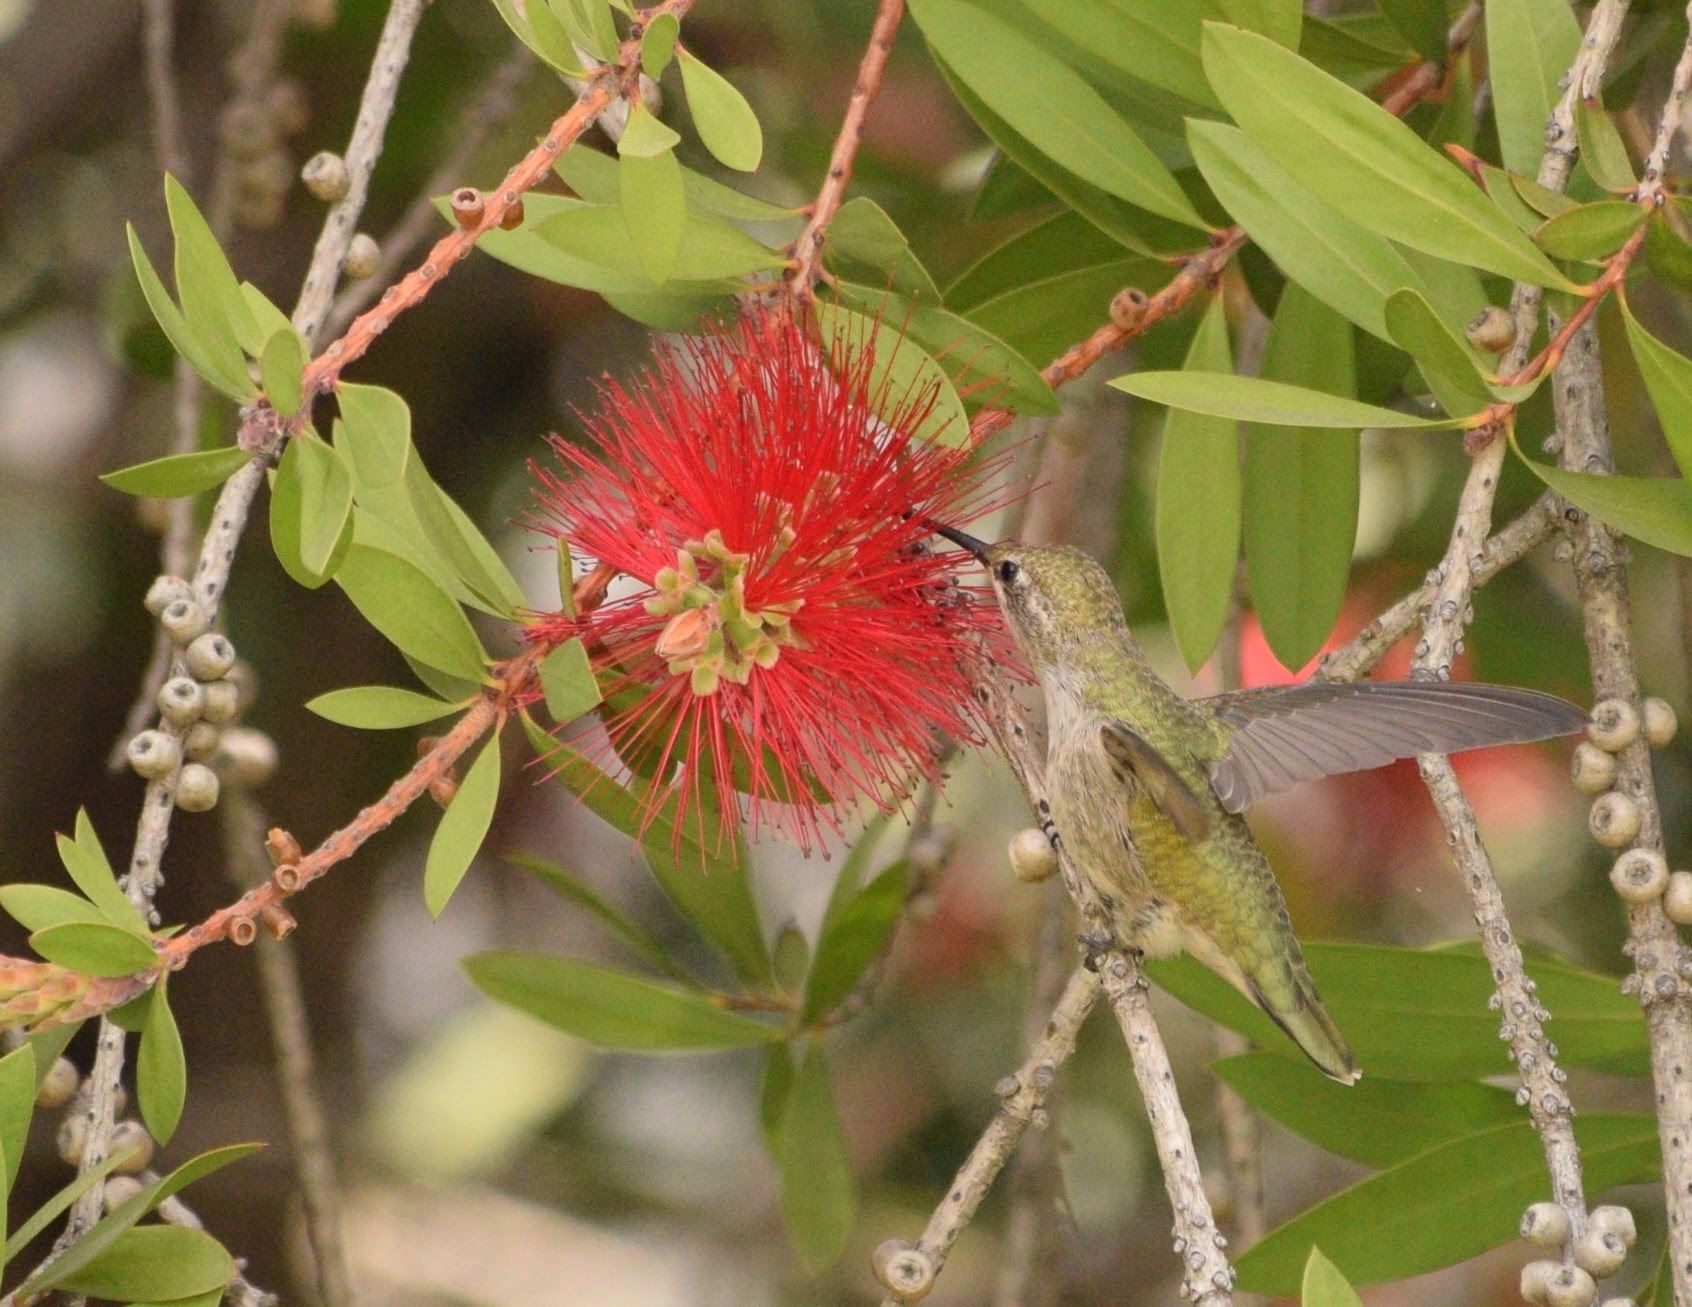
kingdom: Animalia
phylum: Chordata
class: Aves
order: Apodiformes
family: Trochilidae
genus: Calypte
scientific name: Calypte anna
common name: Anna's hummingbird
